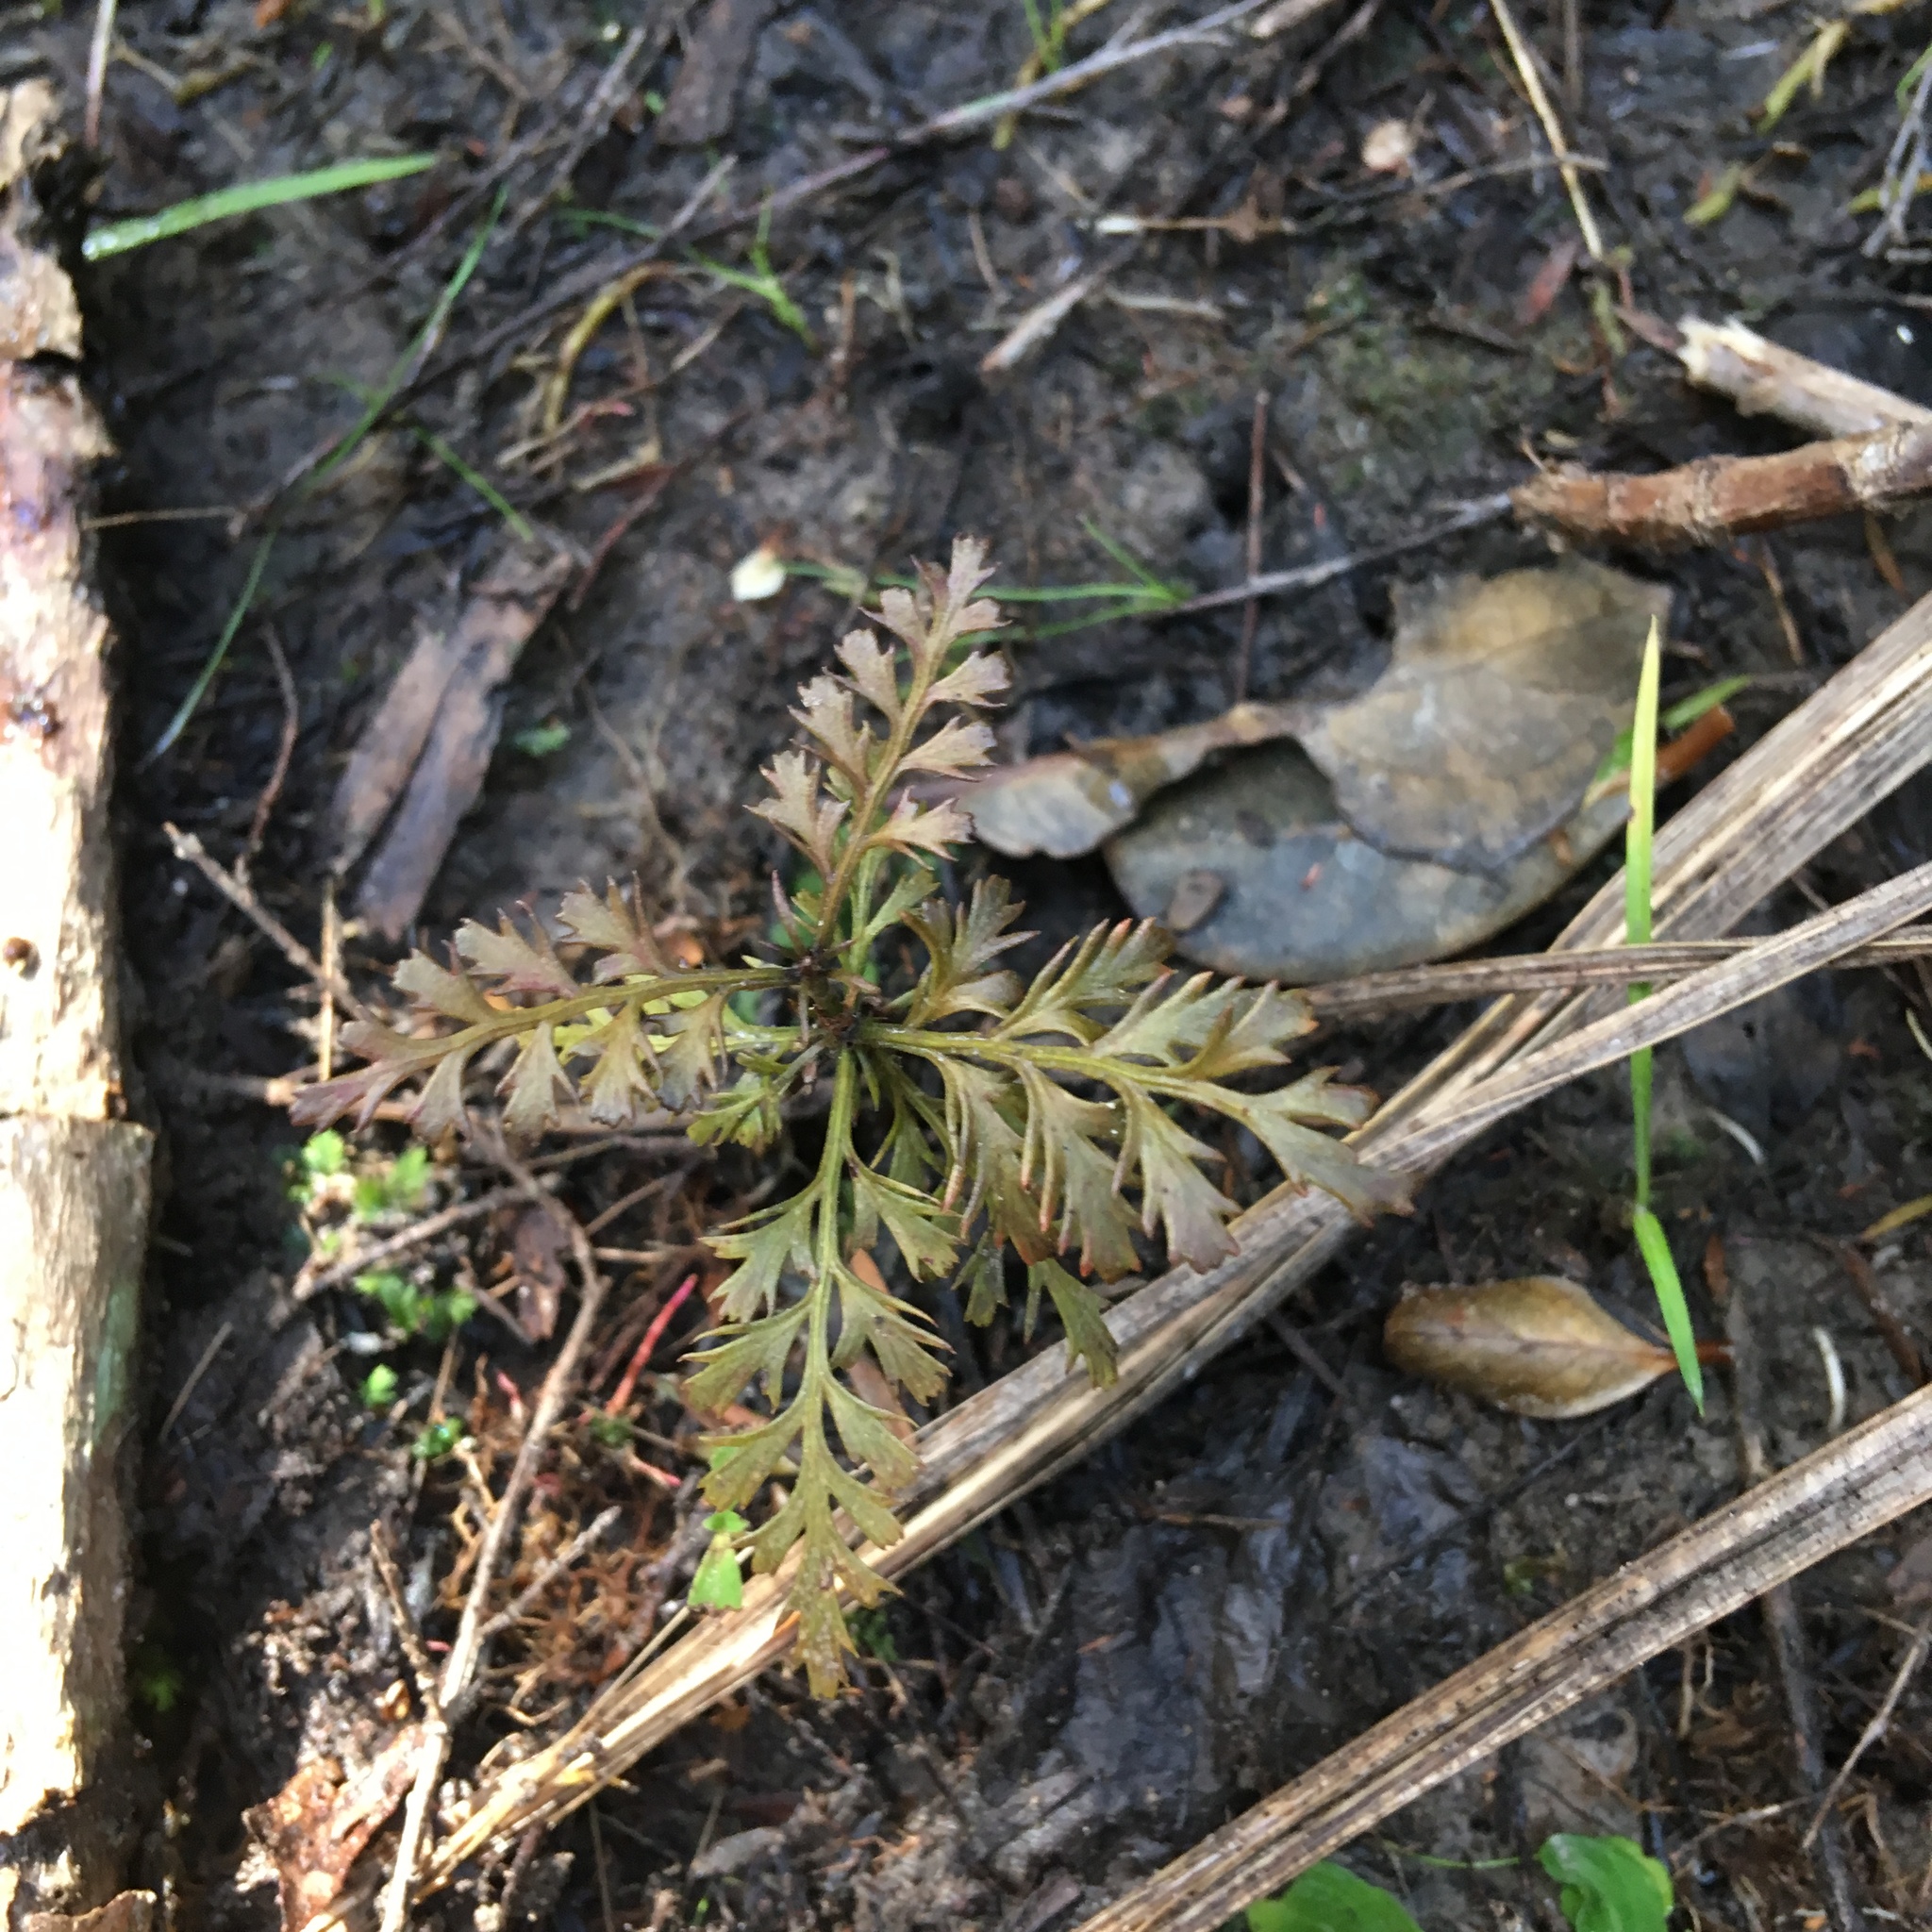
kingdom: Plantae
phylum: Tracheophyta
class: Pinopsida
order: Pinales
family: Phyllocladaceae
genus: Phyllocladus
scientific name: Phyllocladus trichomanoides
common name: Celery pine
